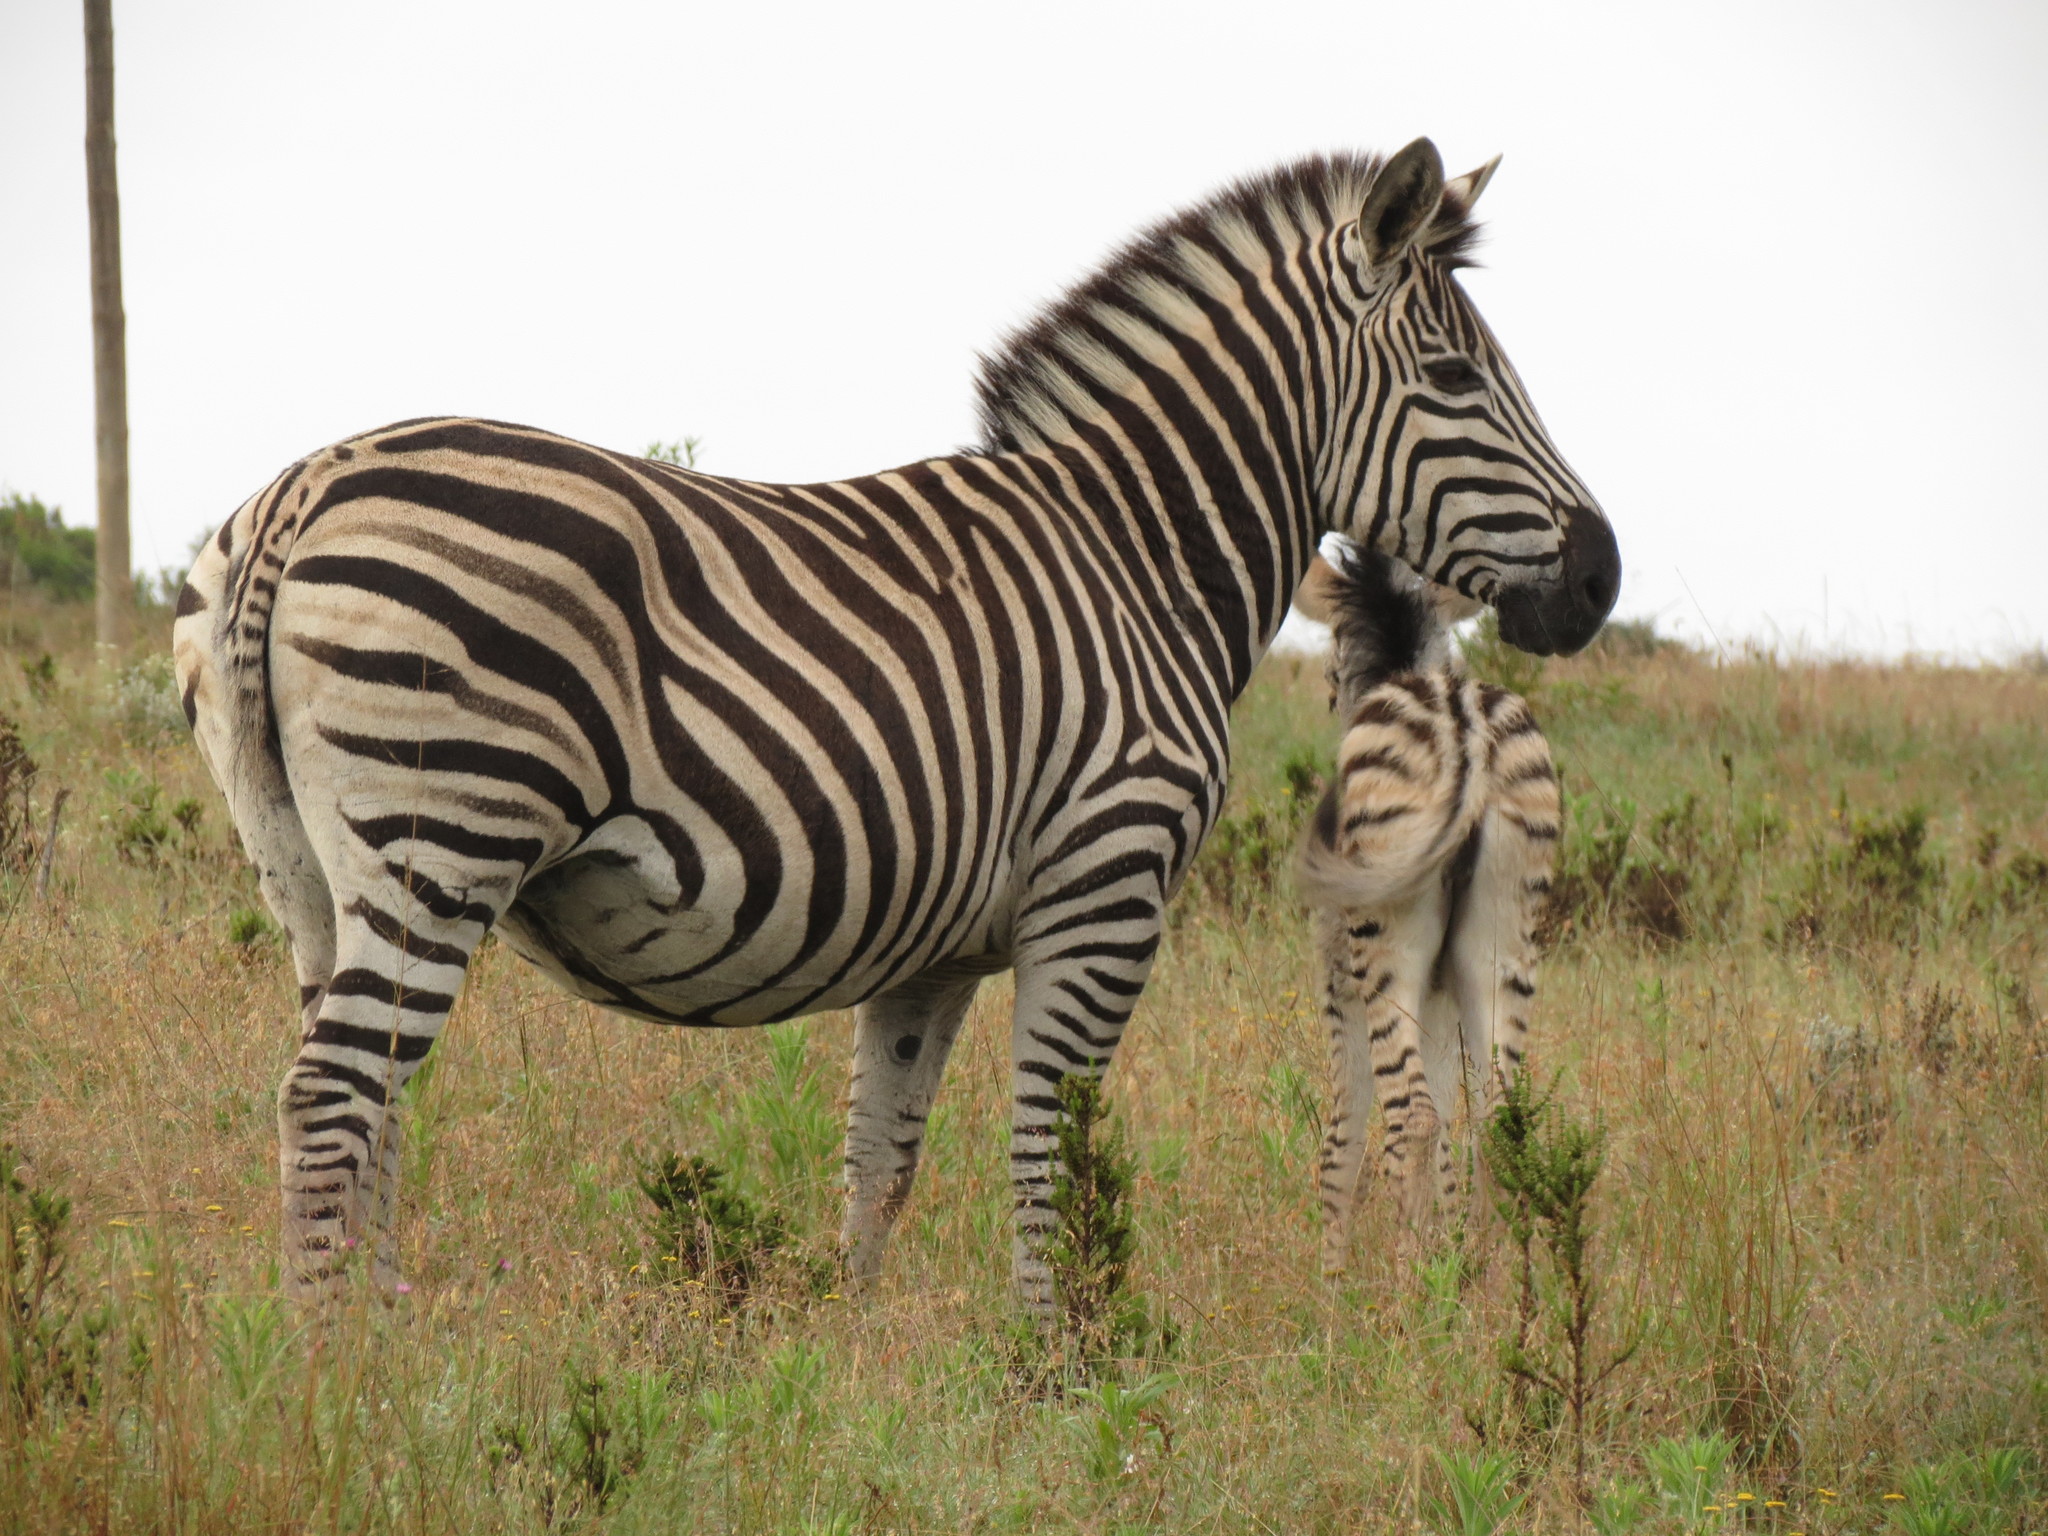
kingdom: Animalia
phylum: Chordata
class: Mammalia
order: Perissodactyla
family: Equidae
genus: Equus
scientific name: Equus quagga
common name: Plains zebra
